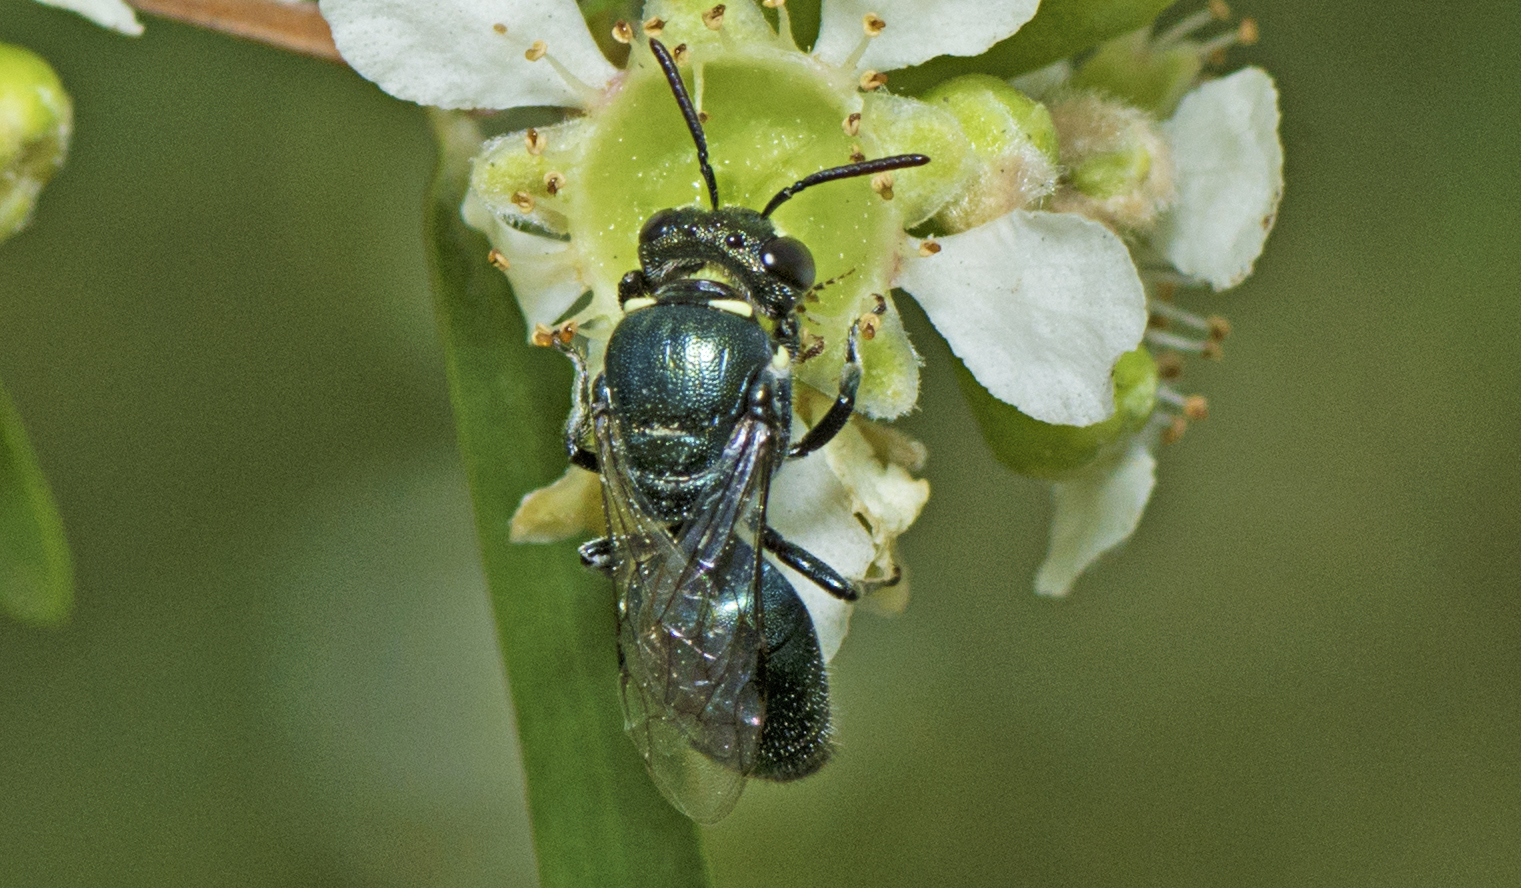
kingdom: Animalia
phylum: Arthropoda
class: Insecta
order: Hymenoptera
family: Colletidae
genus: Hylaeus
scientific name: Hylaeus albonitens
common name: Colletid bee
